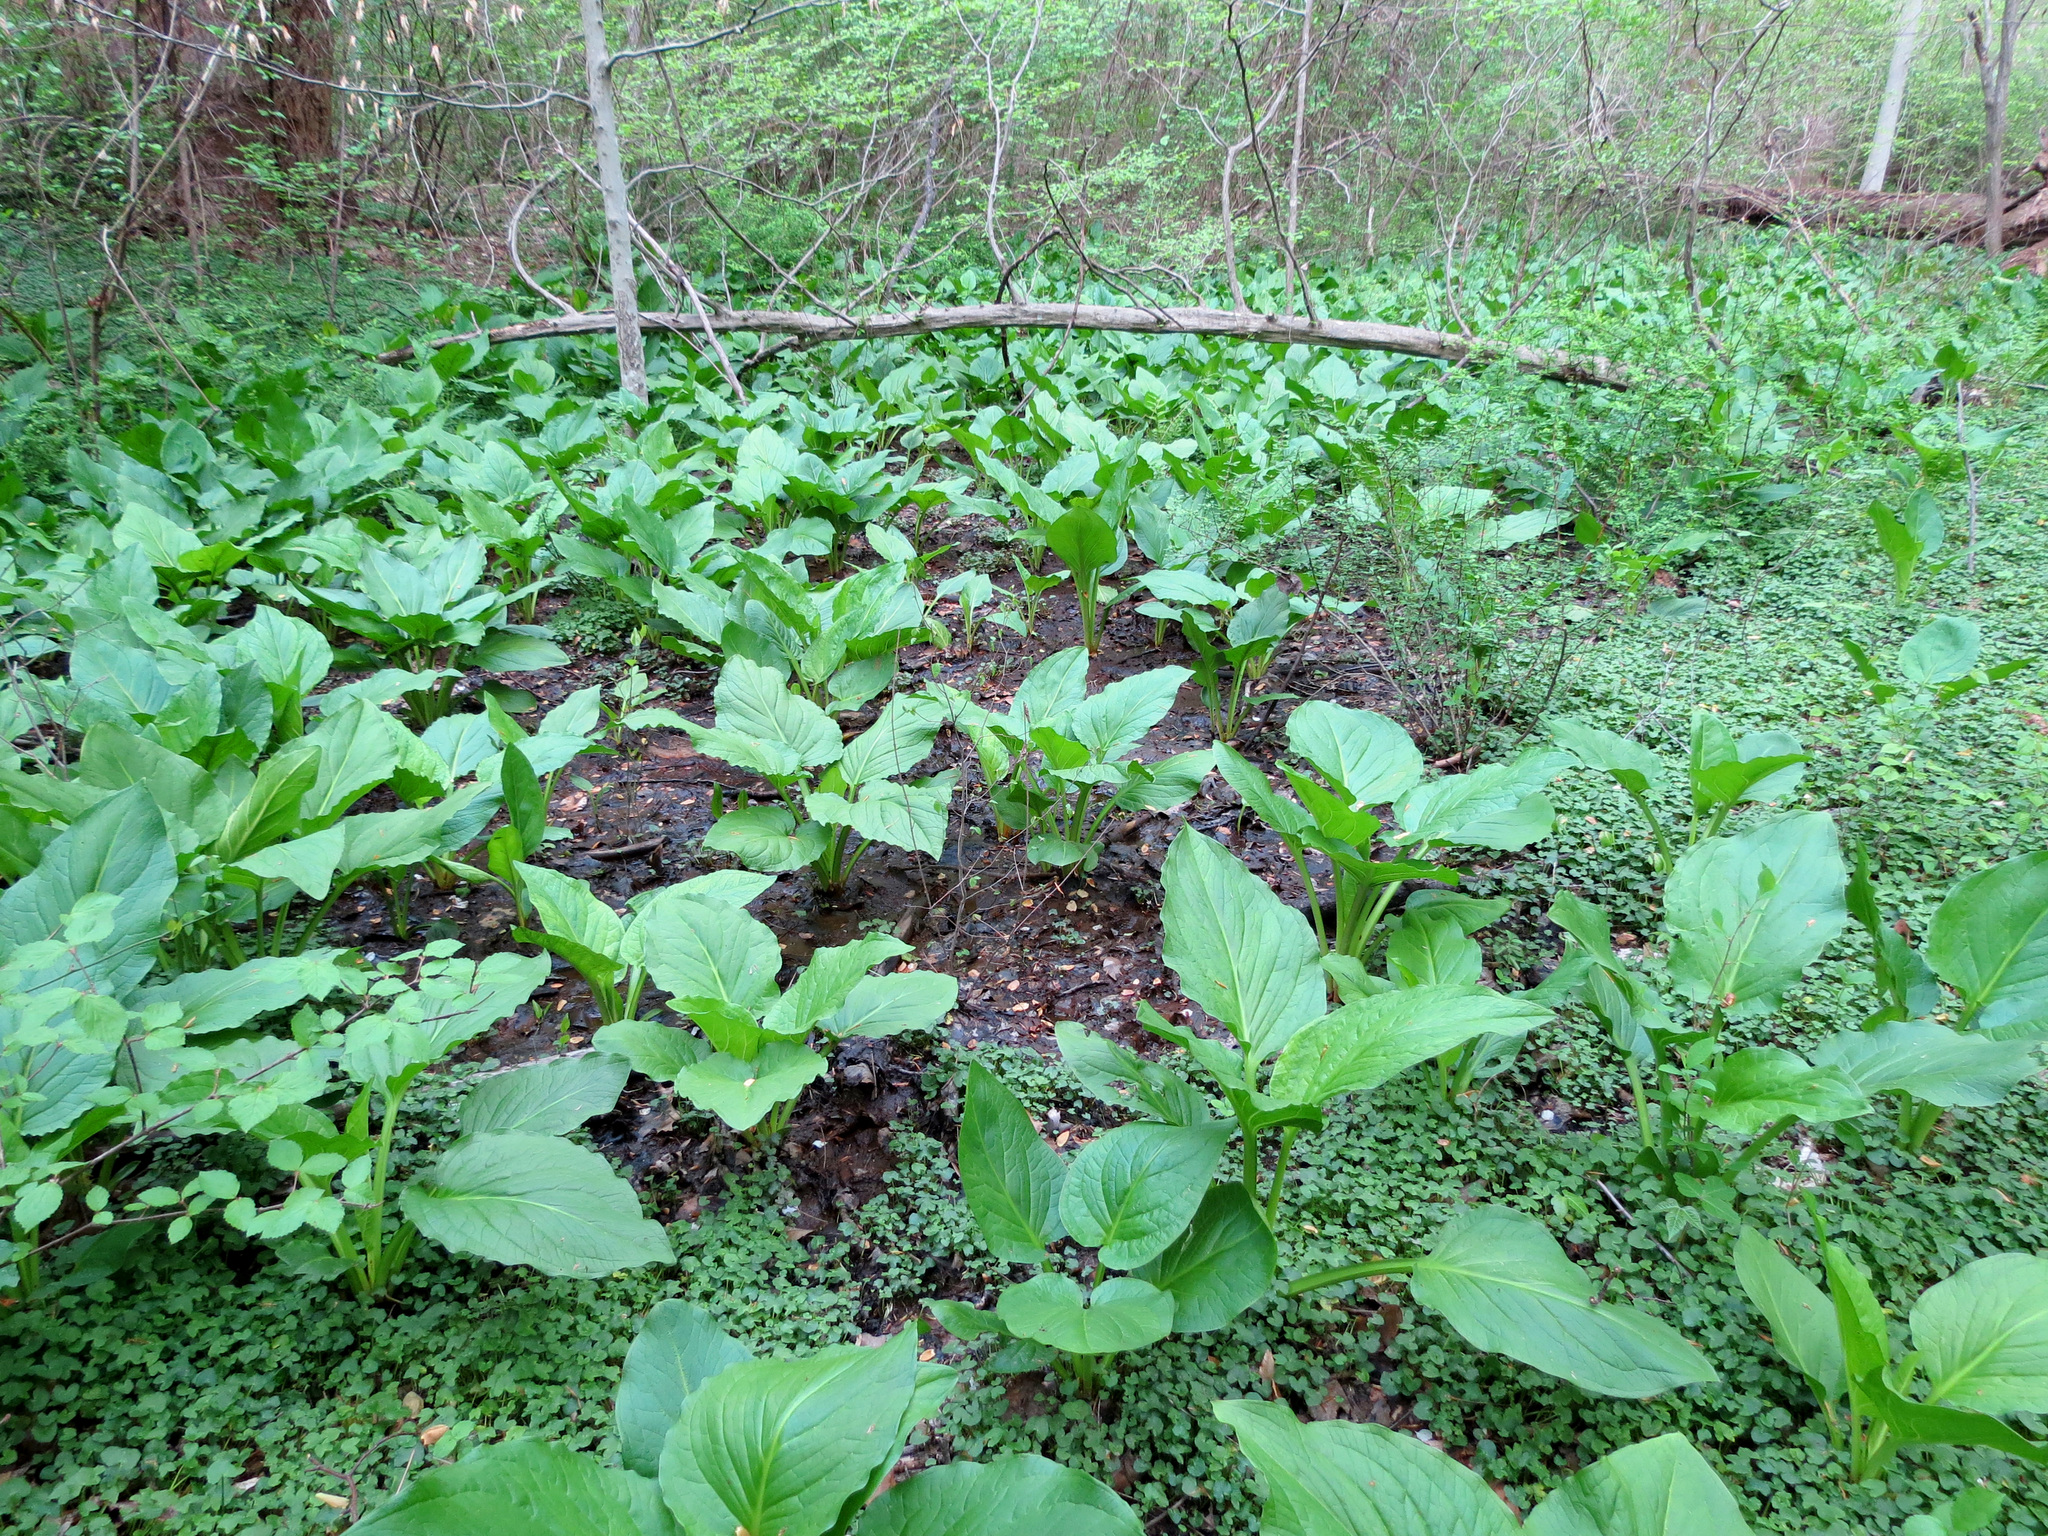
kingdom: Plantae
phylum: Tracheophyta
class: Liliopsida
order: Alismatales
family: Araceae
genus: Symplocarpus
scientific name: Symplocarpus foetidus
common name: Eastern skunk cabbage
